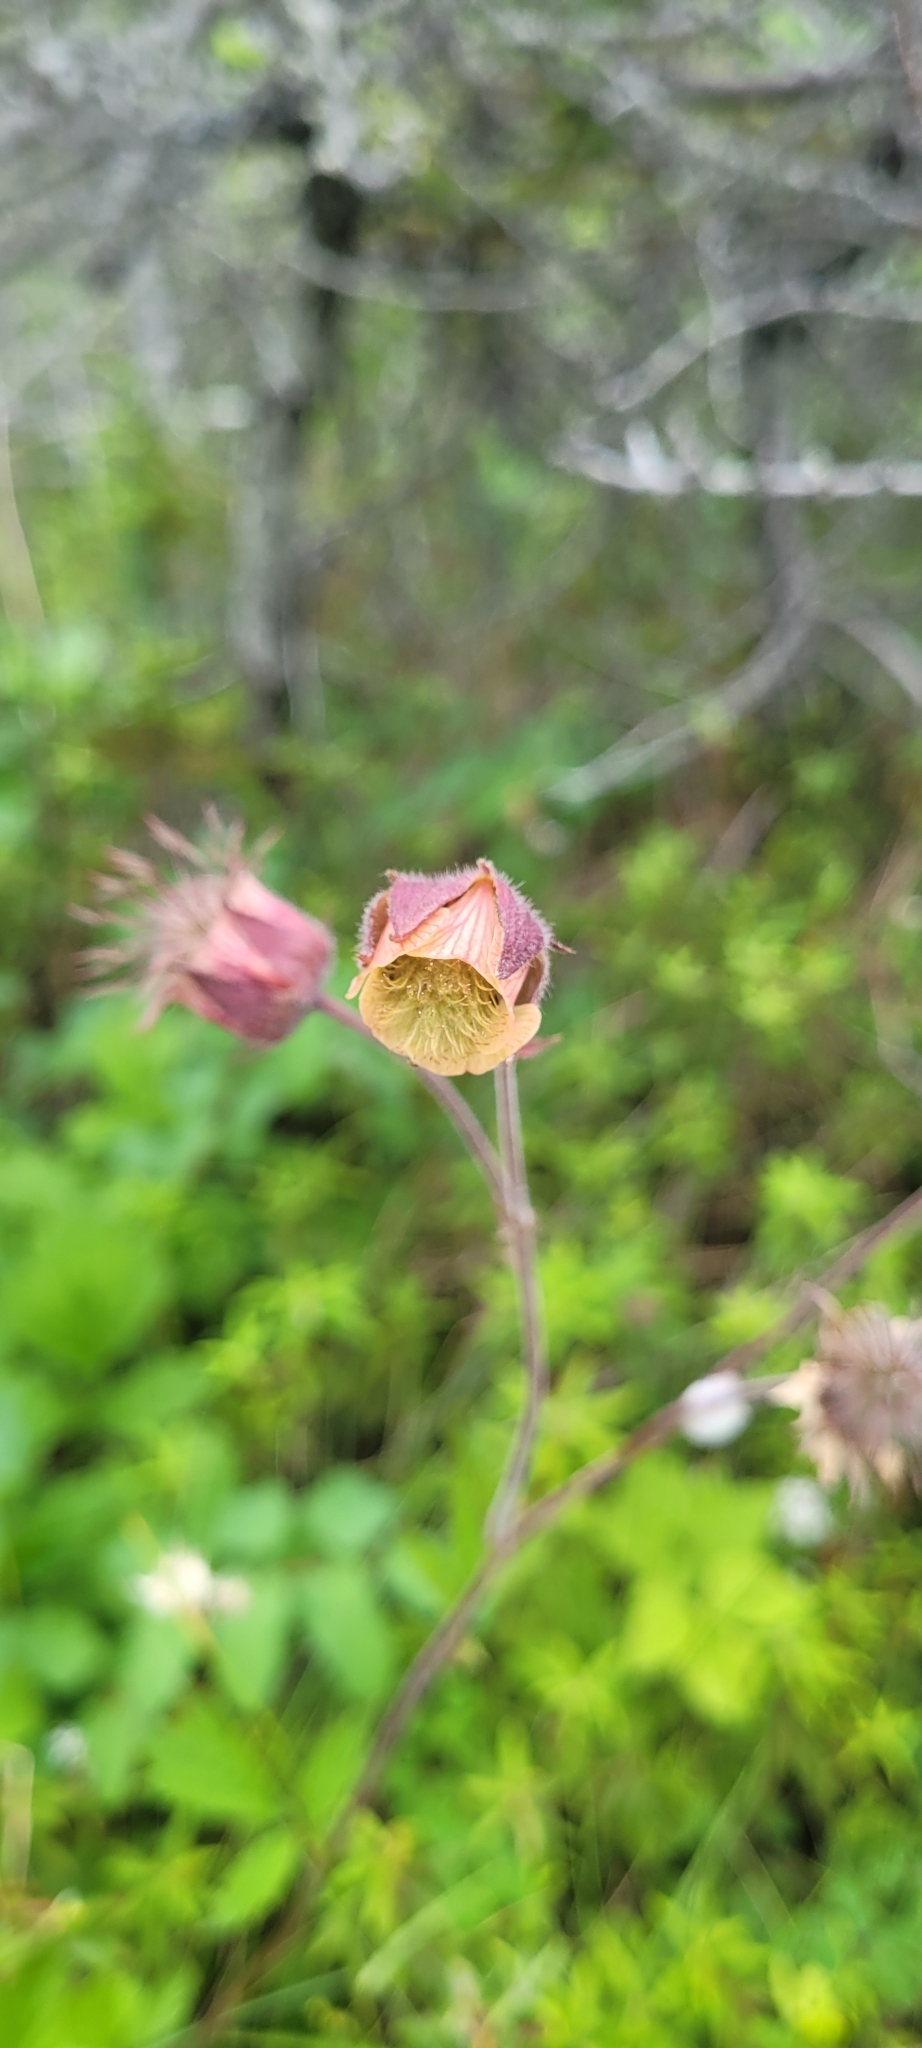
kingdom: Plantae
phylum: Tracheophyta
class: Magnoliopsida
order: Rosales
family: Rosaceae
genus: Geum
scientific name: Geum rivale
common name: Water avens
